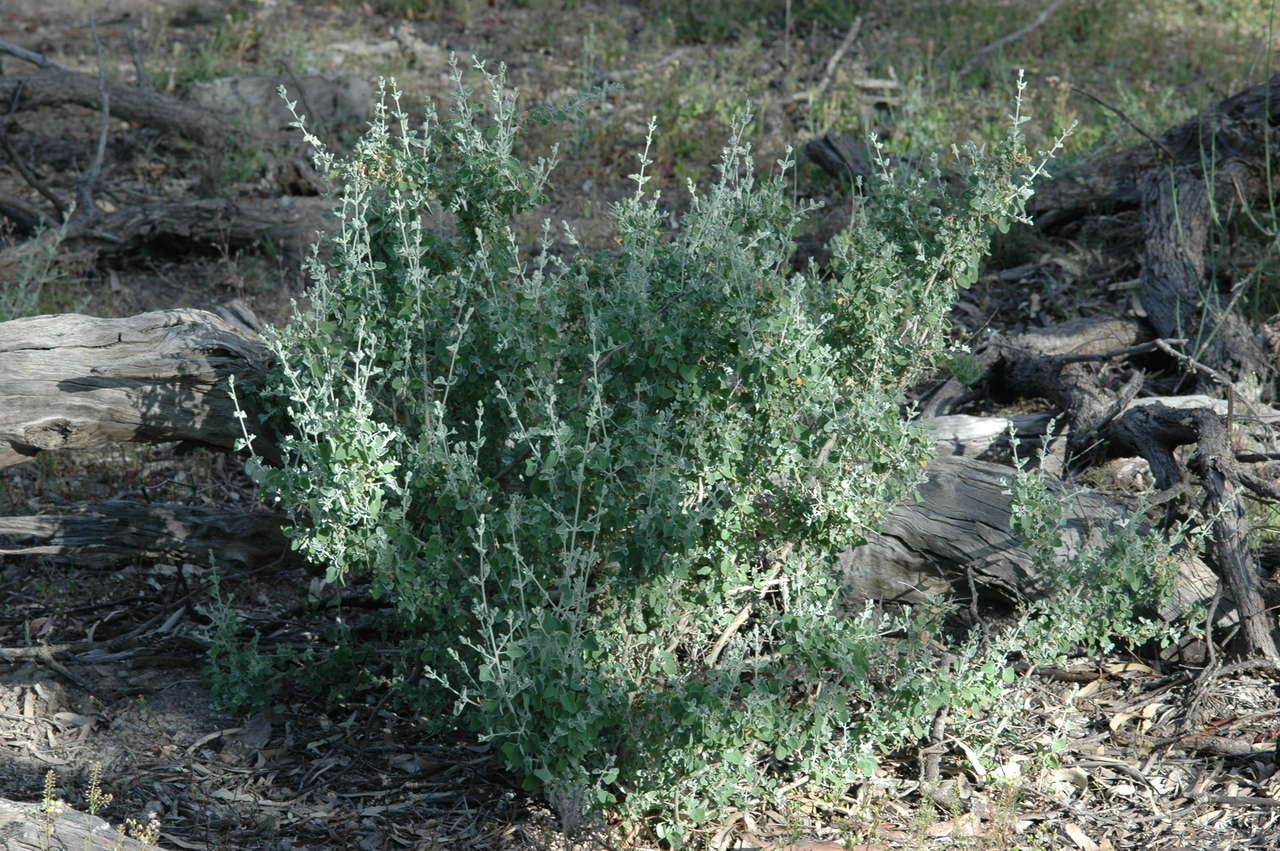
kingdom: Plantae
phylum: Tracheophyta
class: Magnoliopsida
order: Caryophyllales
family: Amaranthaceae
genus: Chenopodium
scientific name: Chenopodium spinescens
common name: Berry-saltbush
